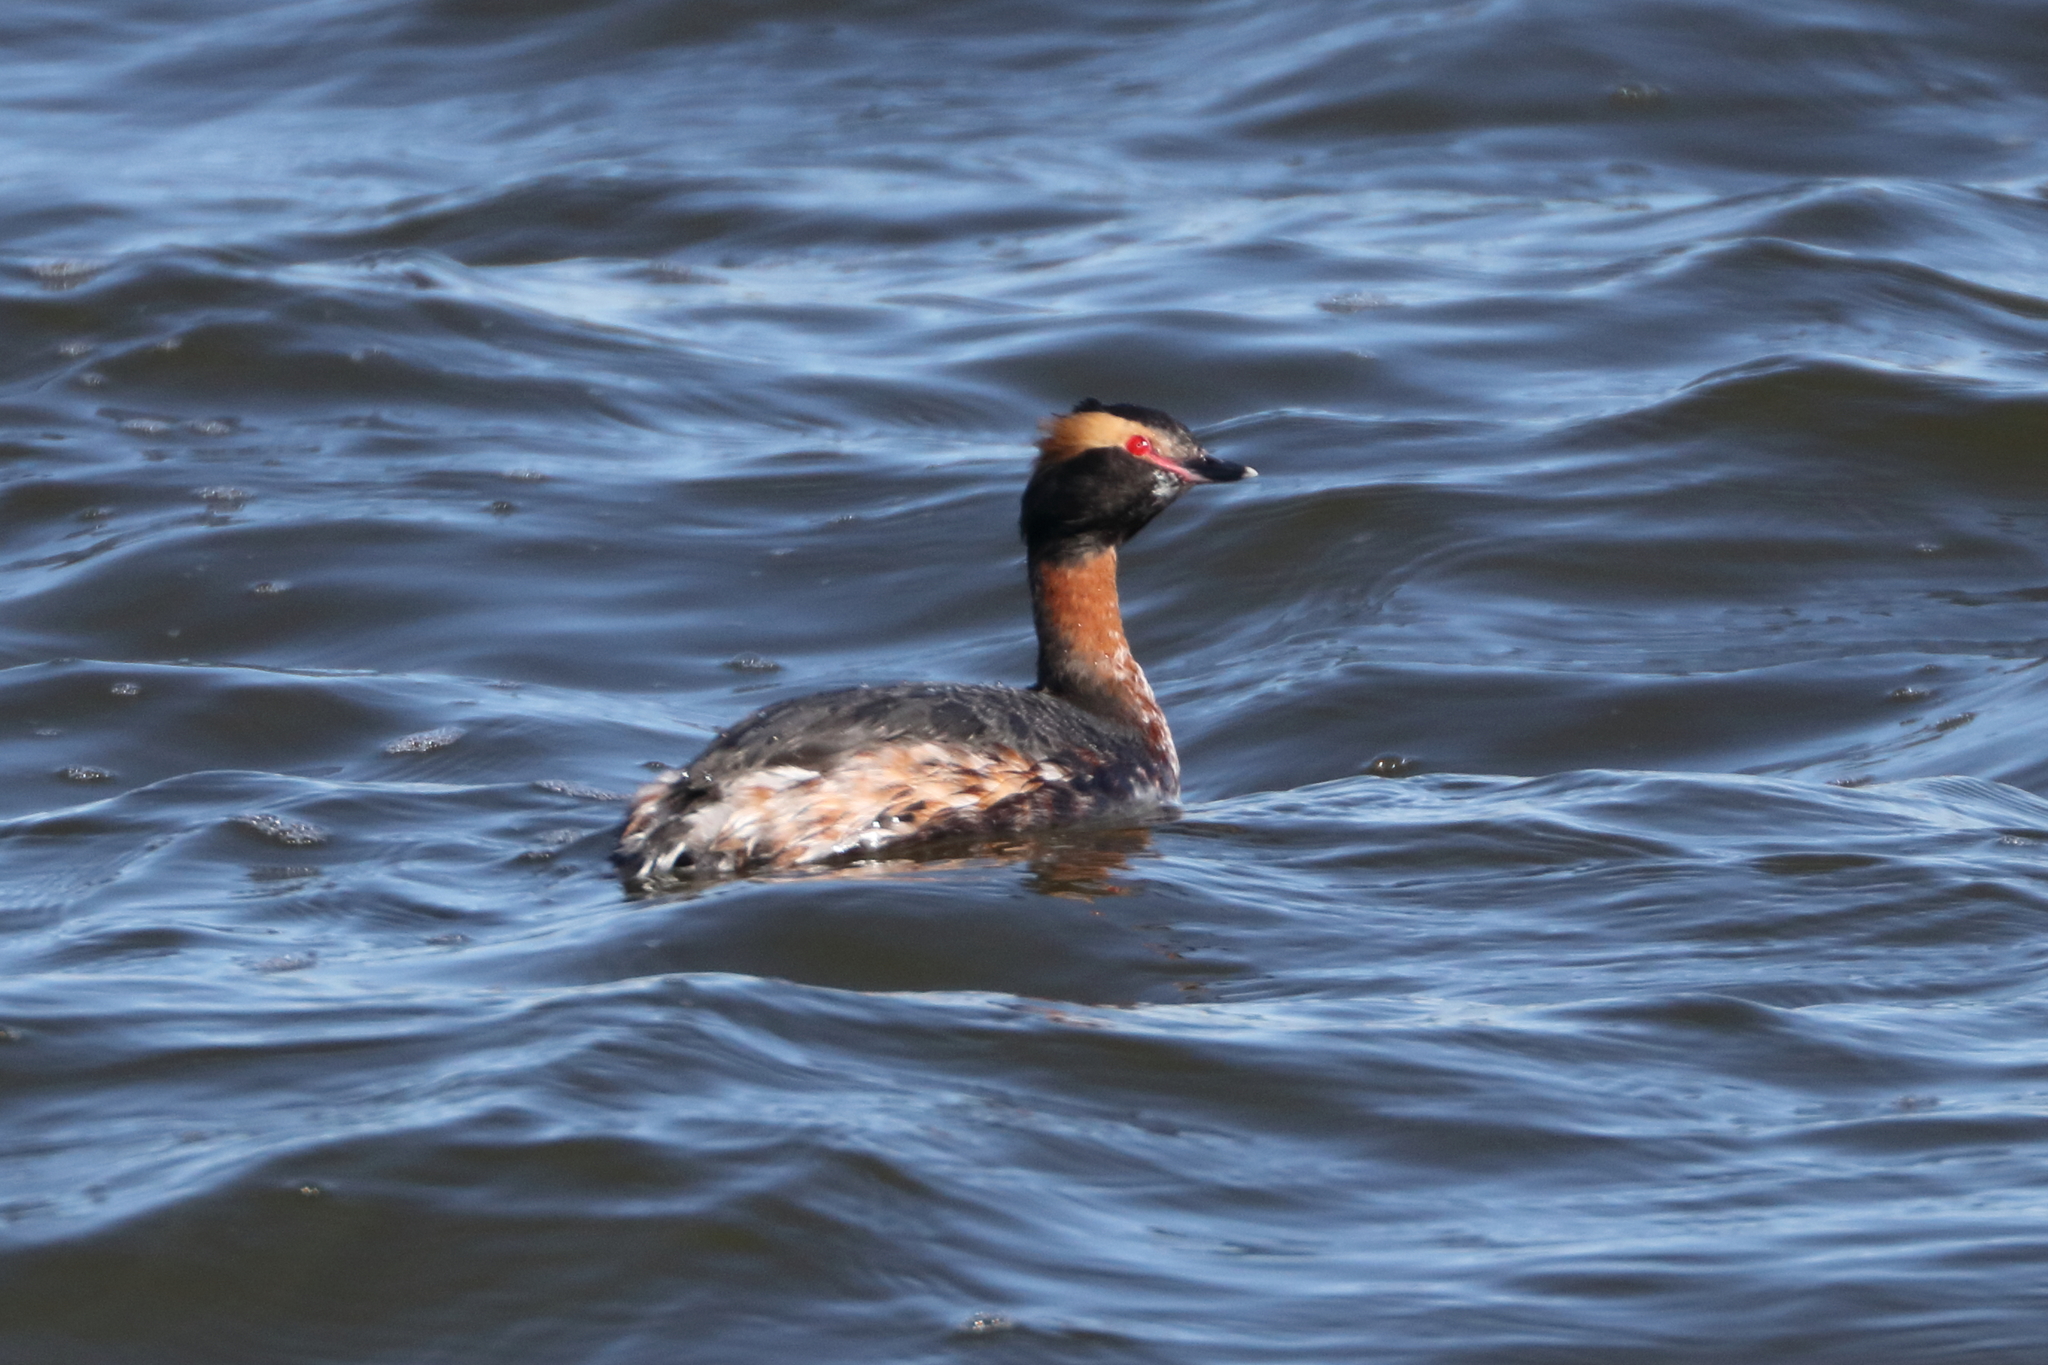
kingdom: Animalia
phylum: Chordata
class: Aves
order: Podicipediformes
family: Podicipedidae
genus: Podiceps
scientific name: Podiceps auritus
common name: Horned grebe
